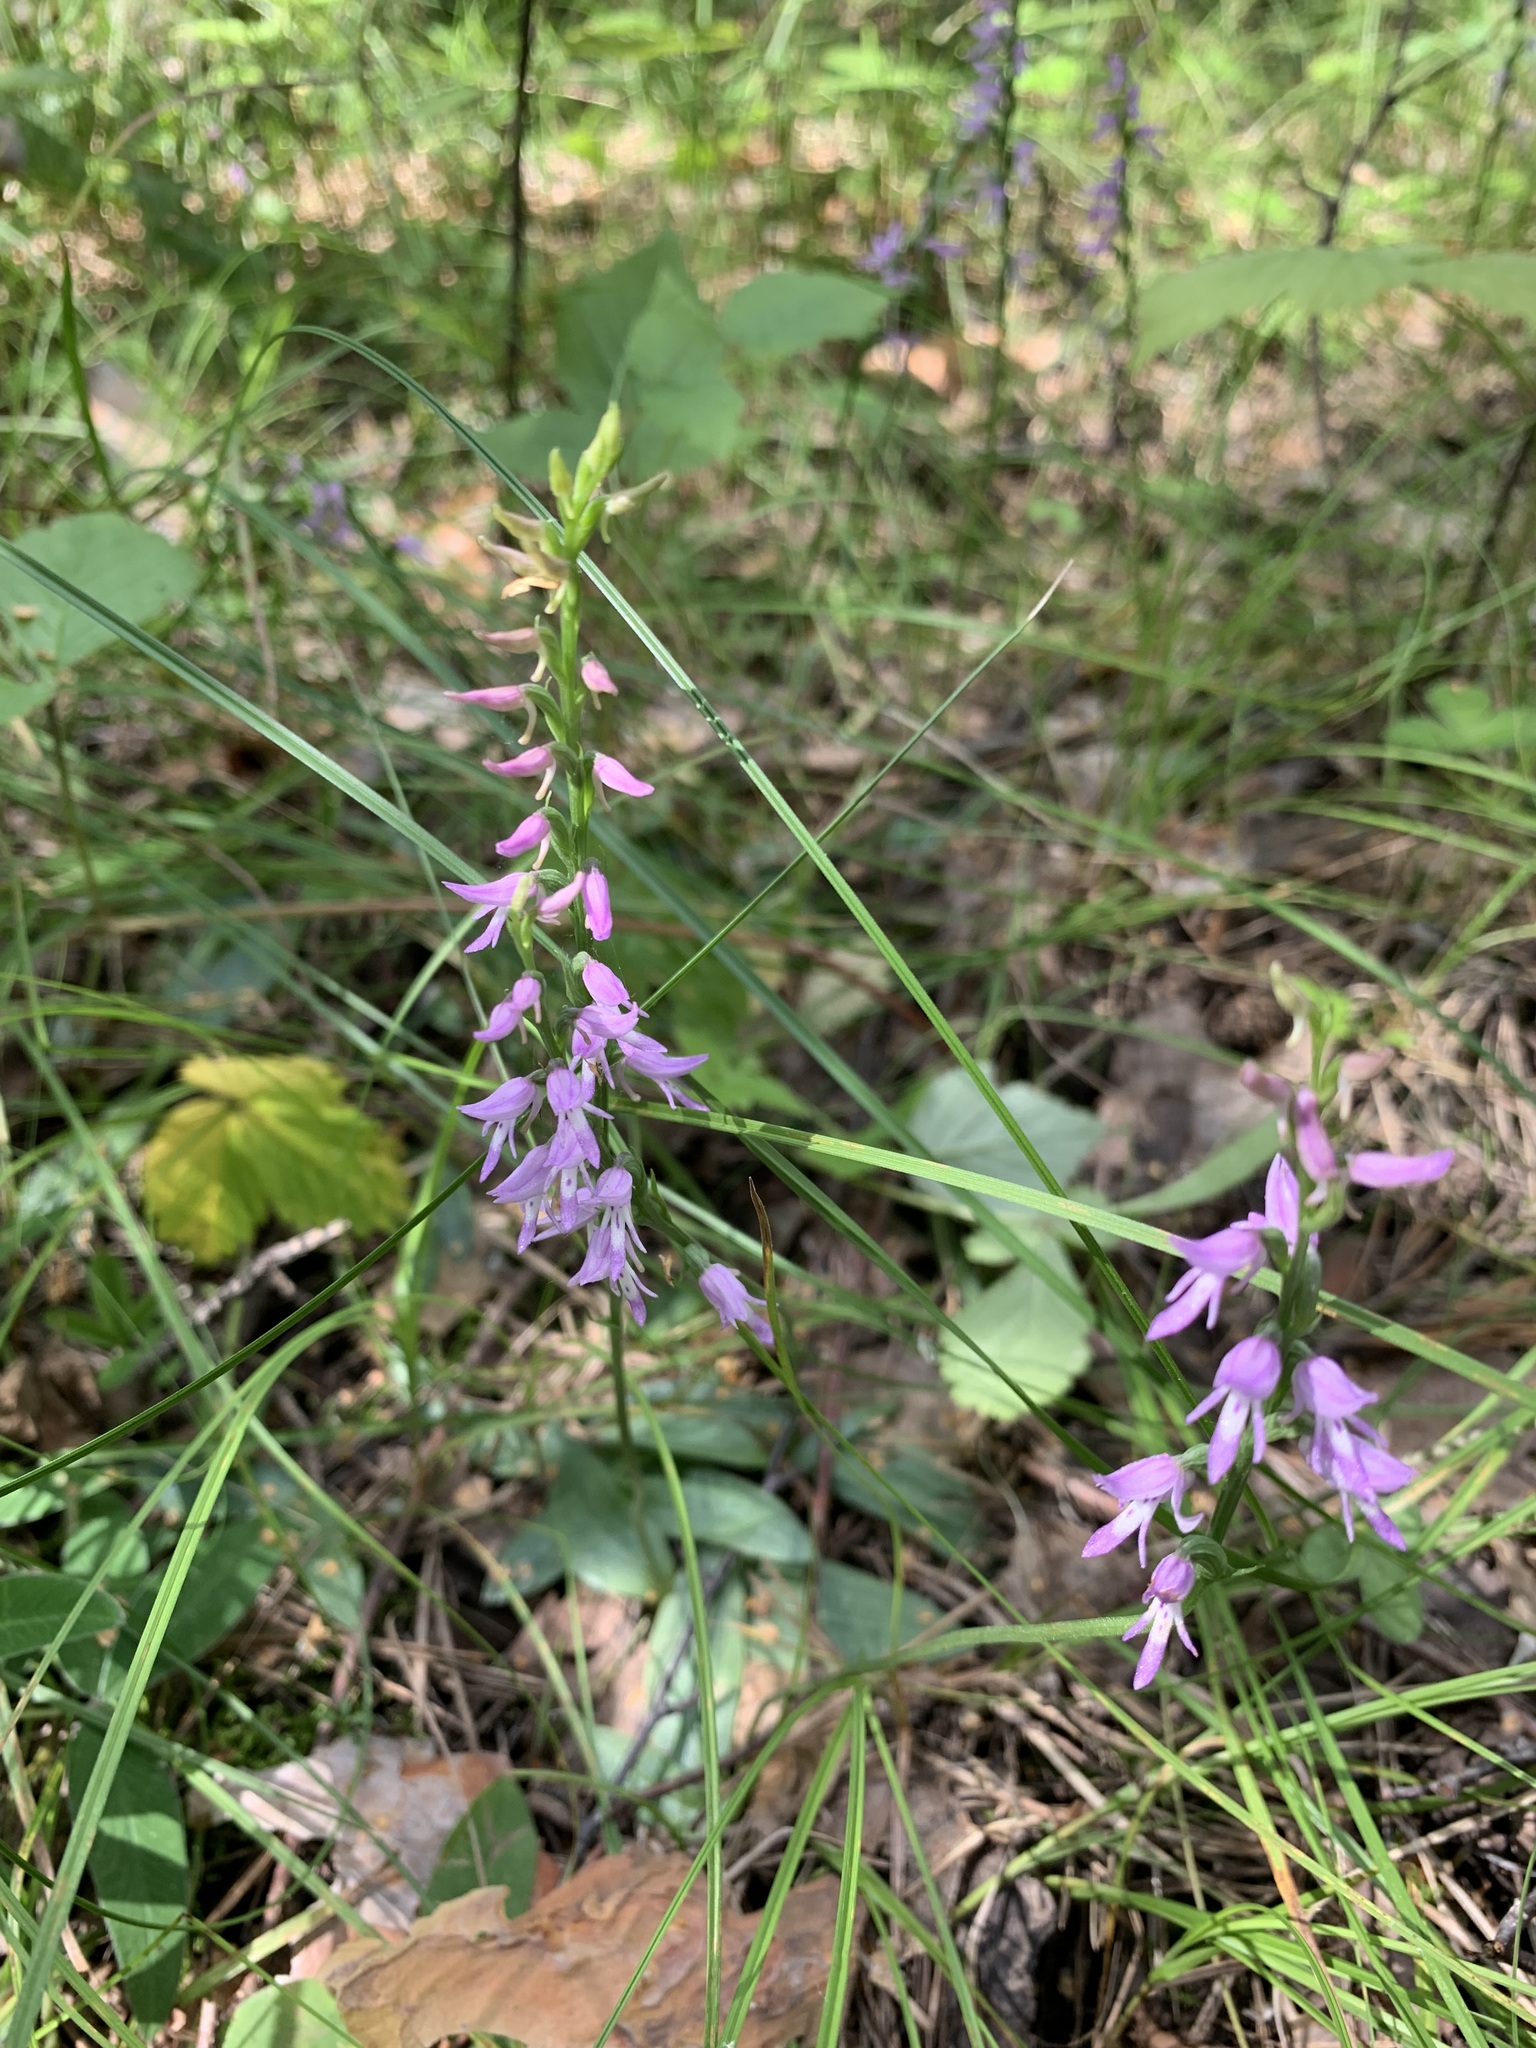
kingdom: Plantae
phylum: Tracheophyta
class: Liliopsida
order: Asparagales
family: Orchidaceae
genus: Hemipilia
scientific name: Hemipilia cucullata
